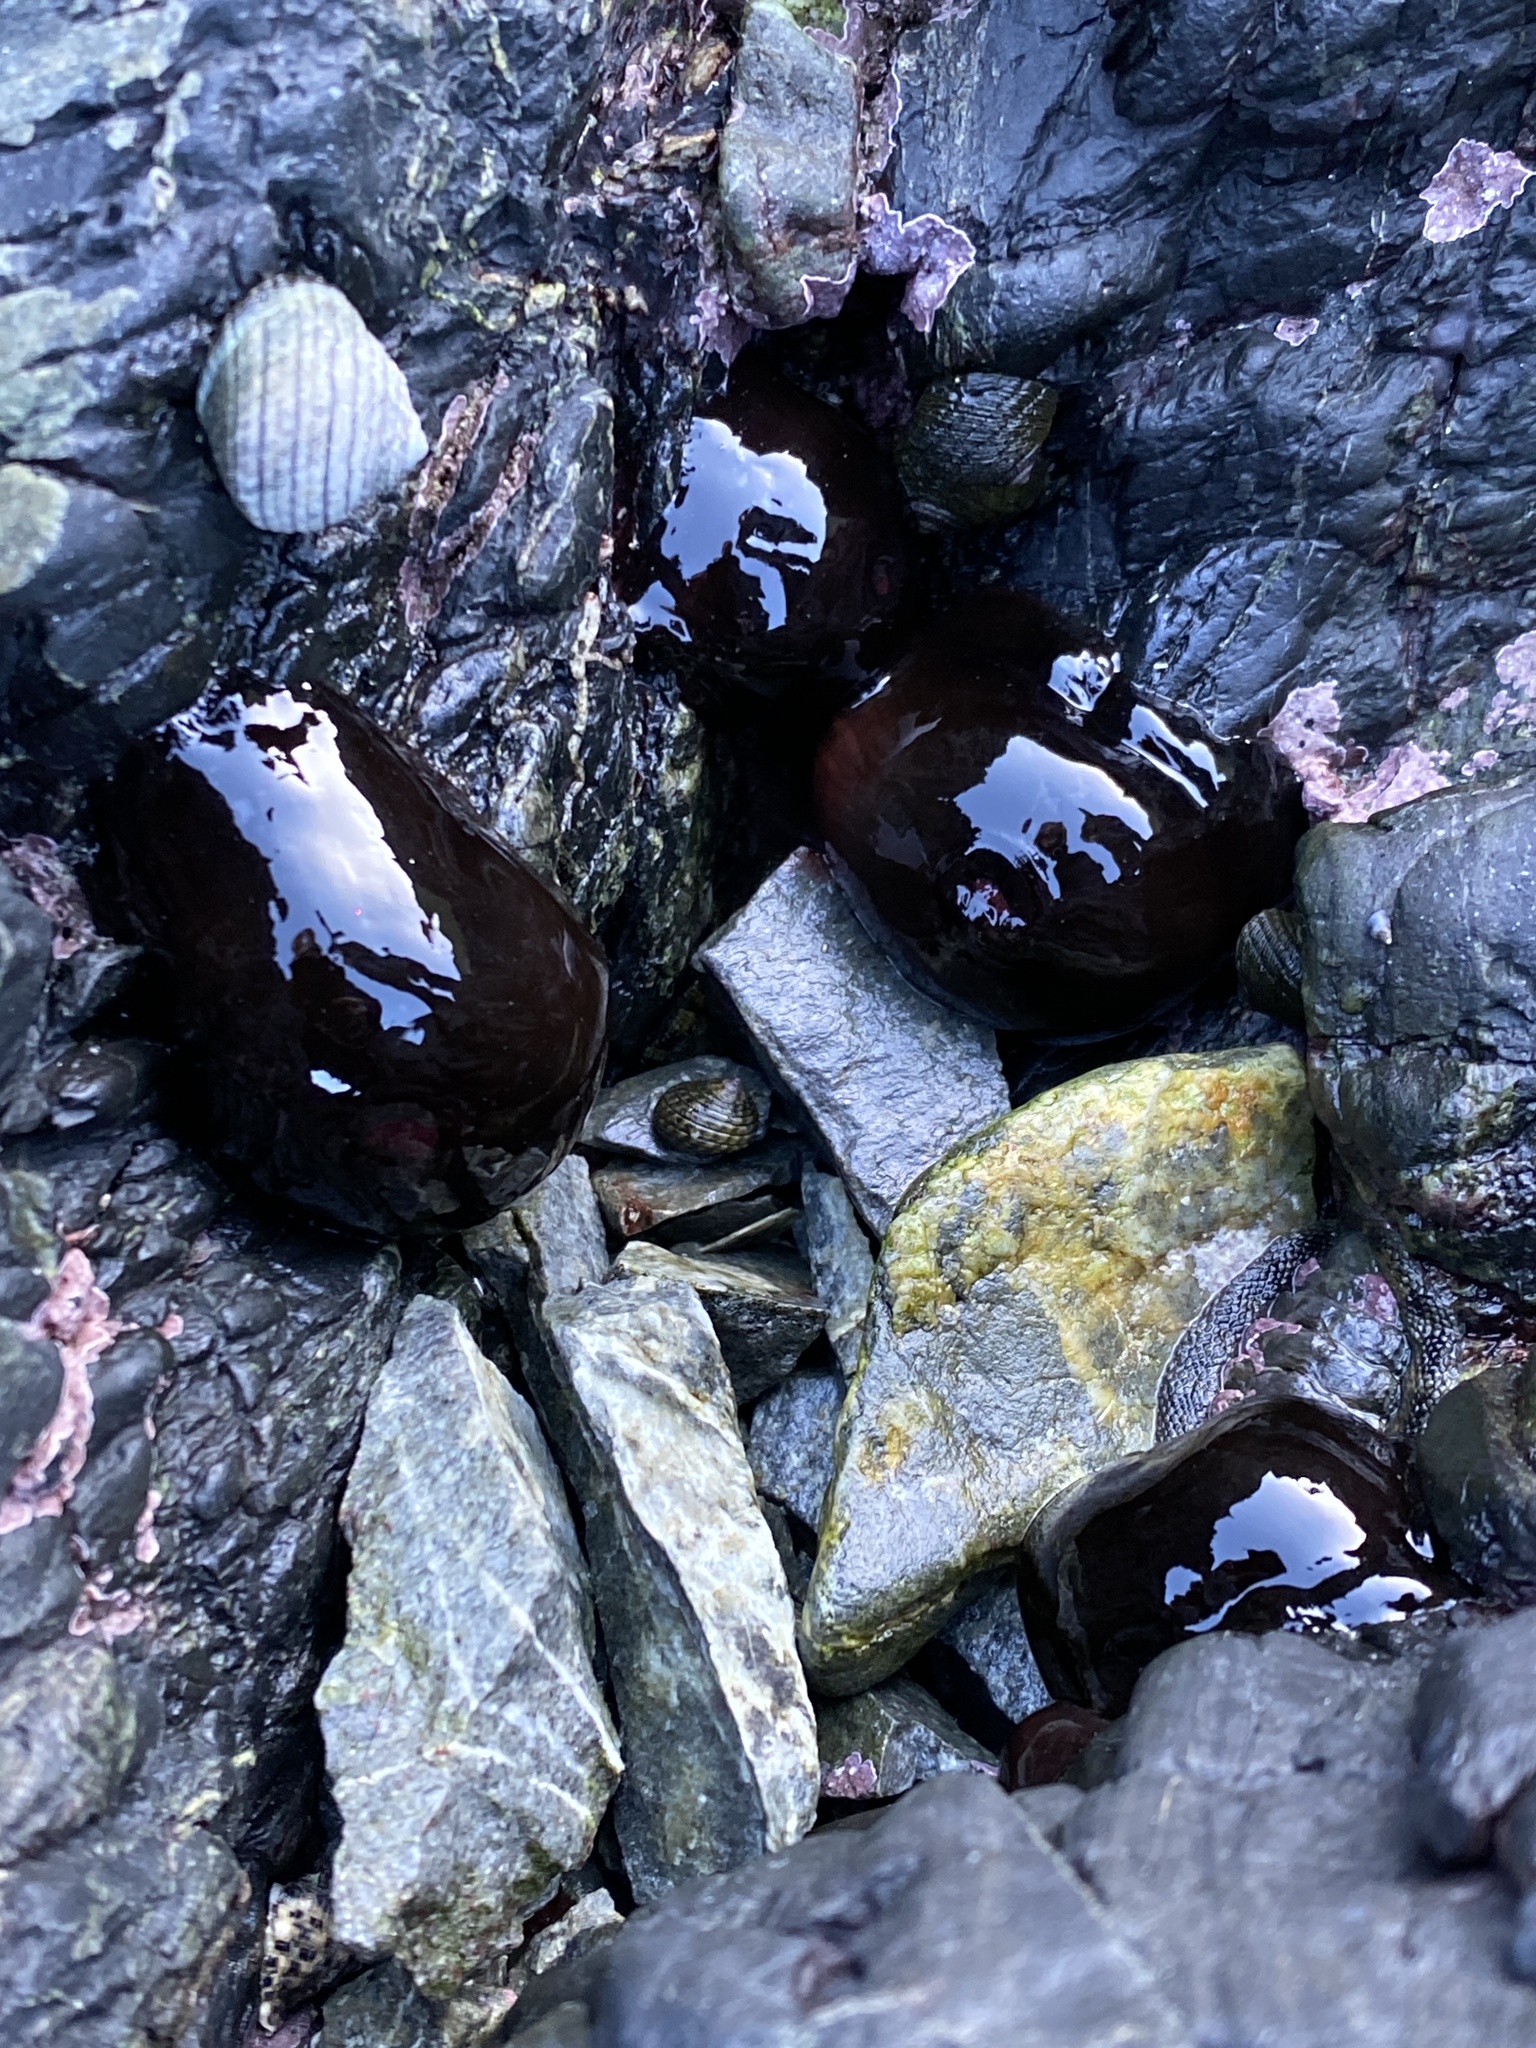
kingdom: Animalia
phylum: Cnidaria
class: Anthozoa
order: Actiniaria
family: Actiniidae
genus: Actinia
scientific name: Actinia tenebrosa
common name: Waratah anemone
